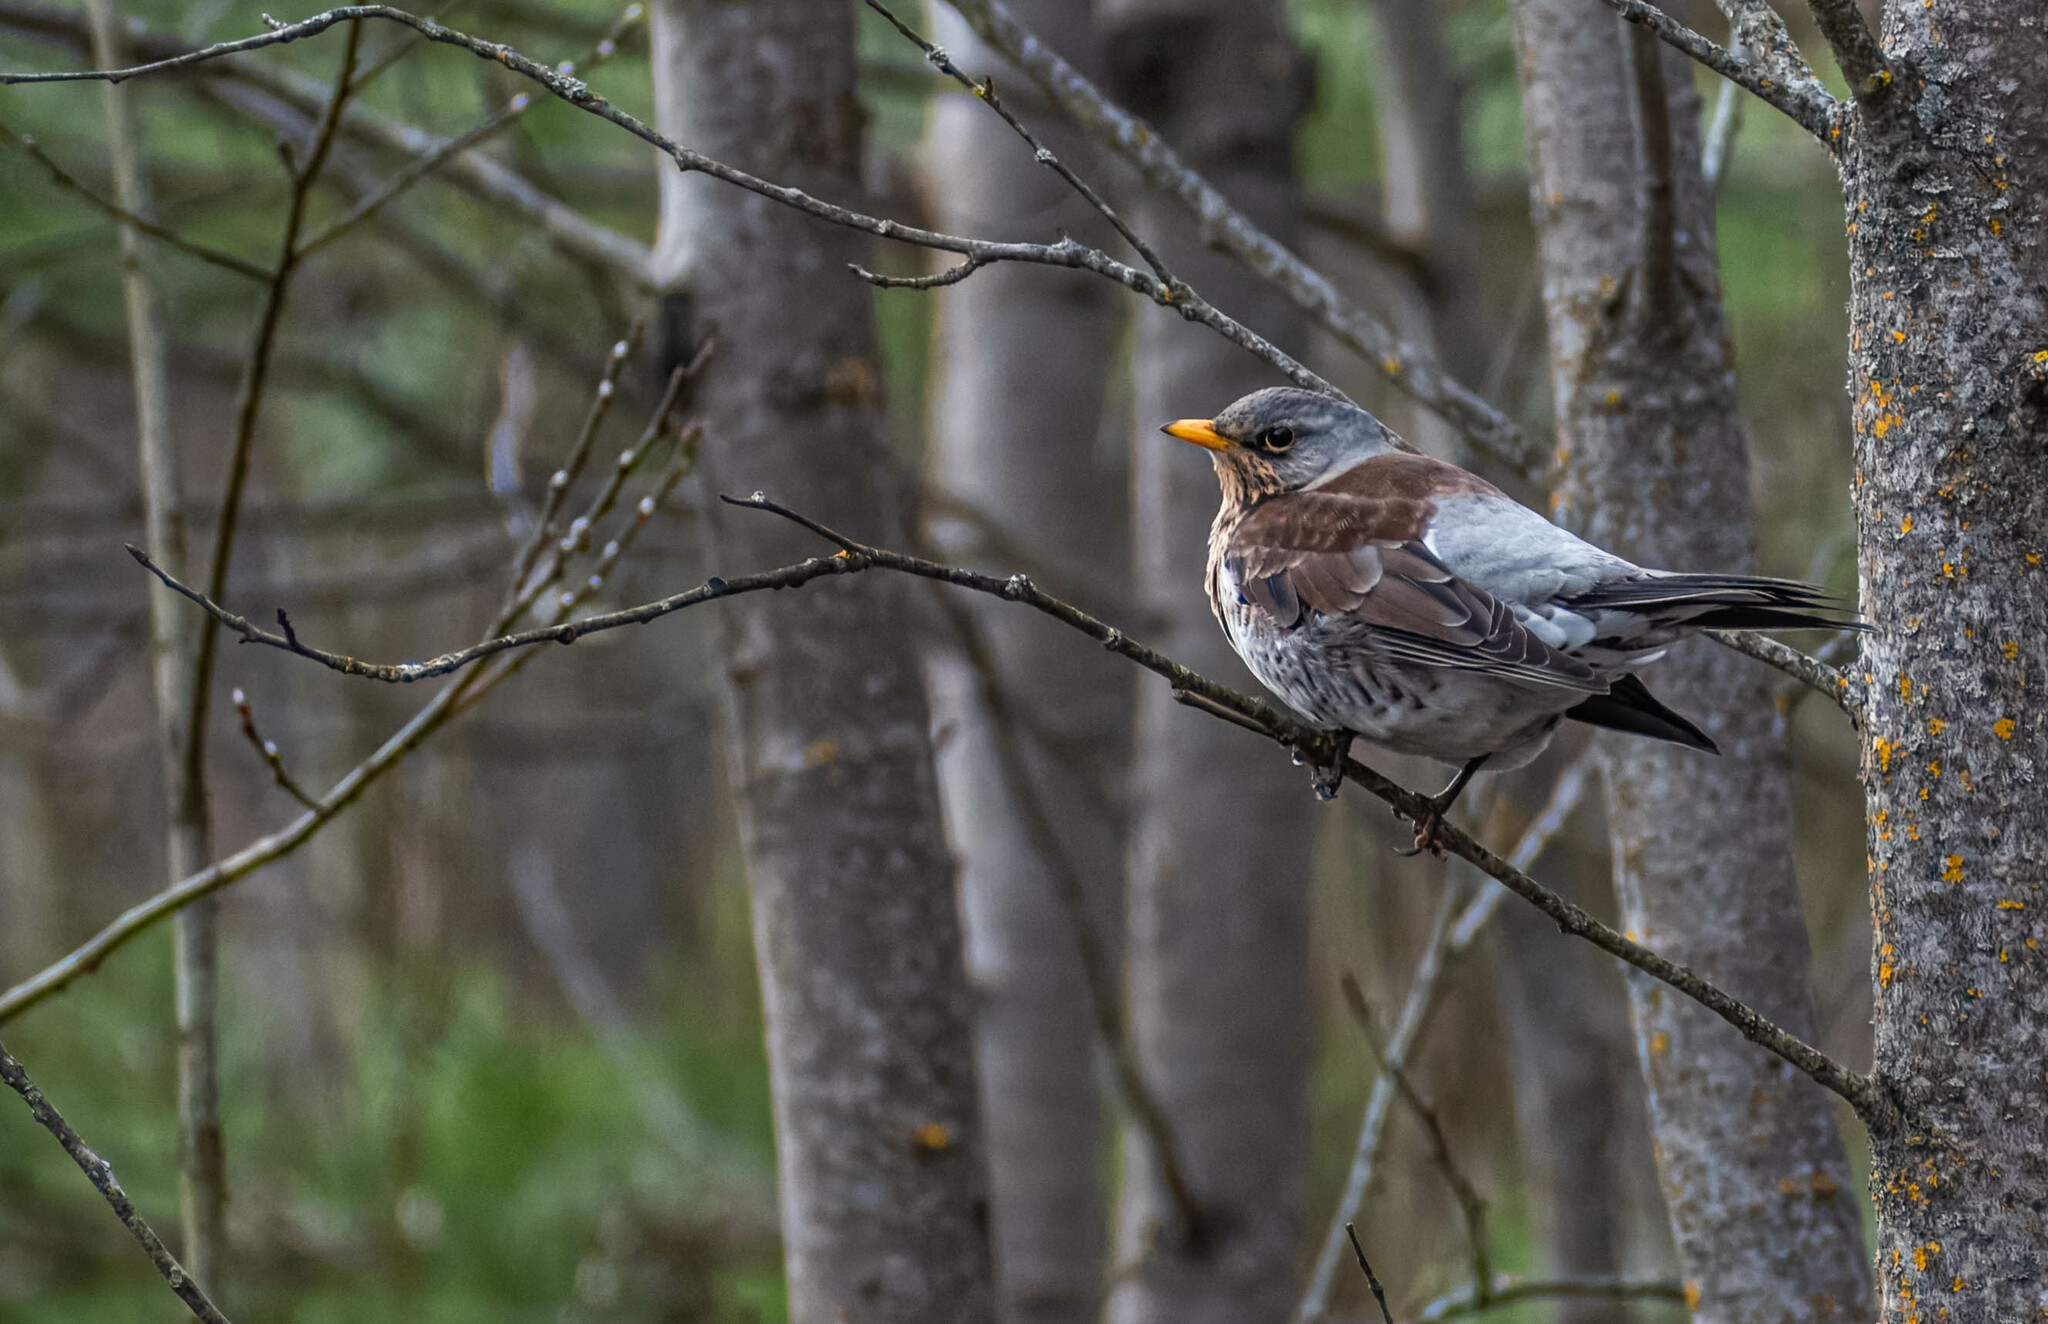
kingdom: Animalia
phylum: Chordata
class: Aves
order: Passeriformes
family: Turdidae
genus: Turdus
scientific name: Turdus pilaris
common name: Fieldfare
